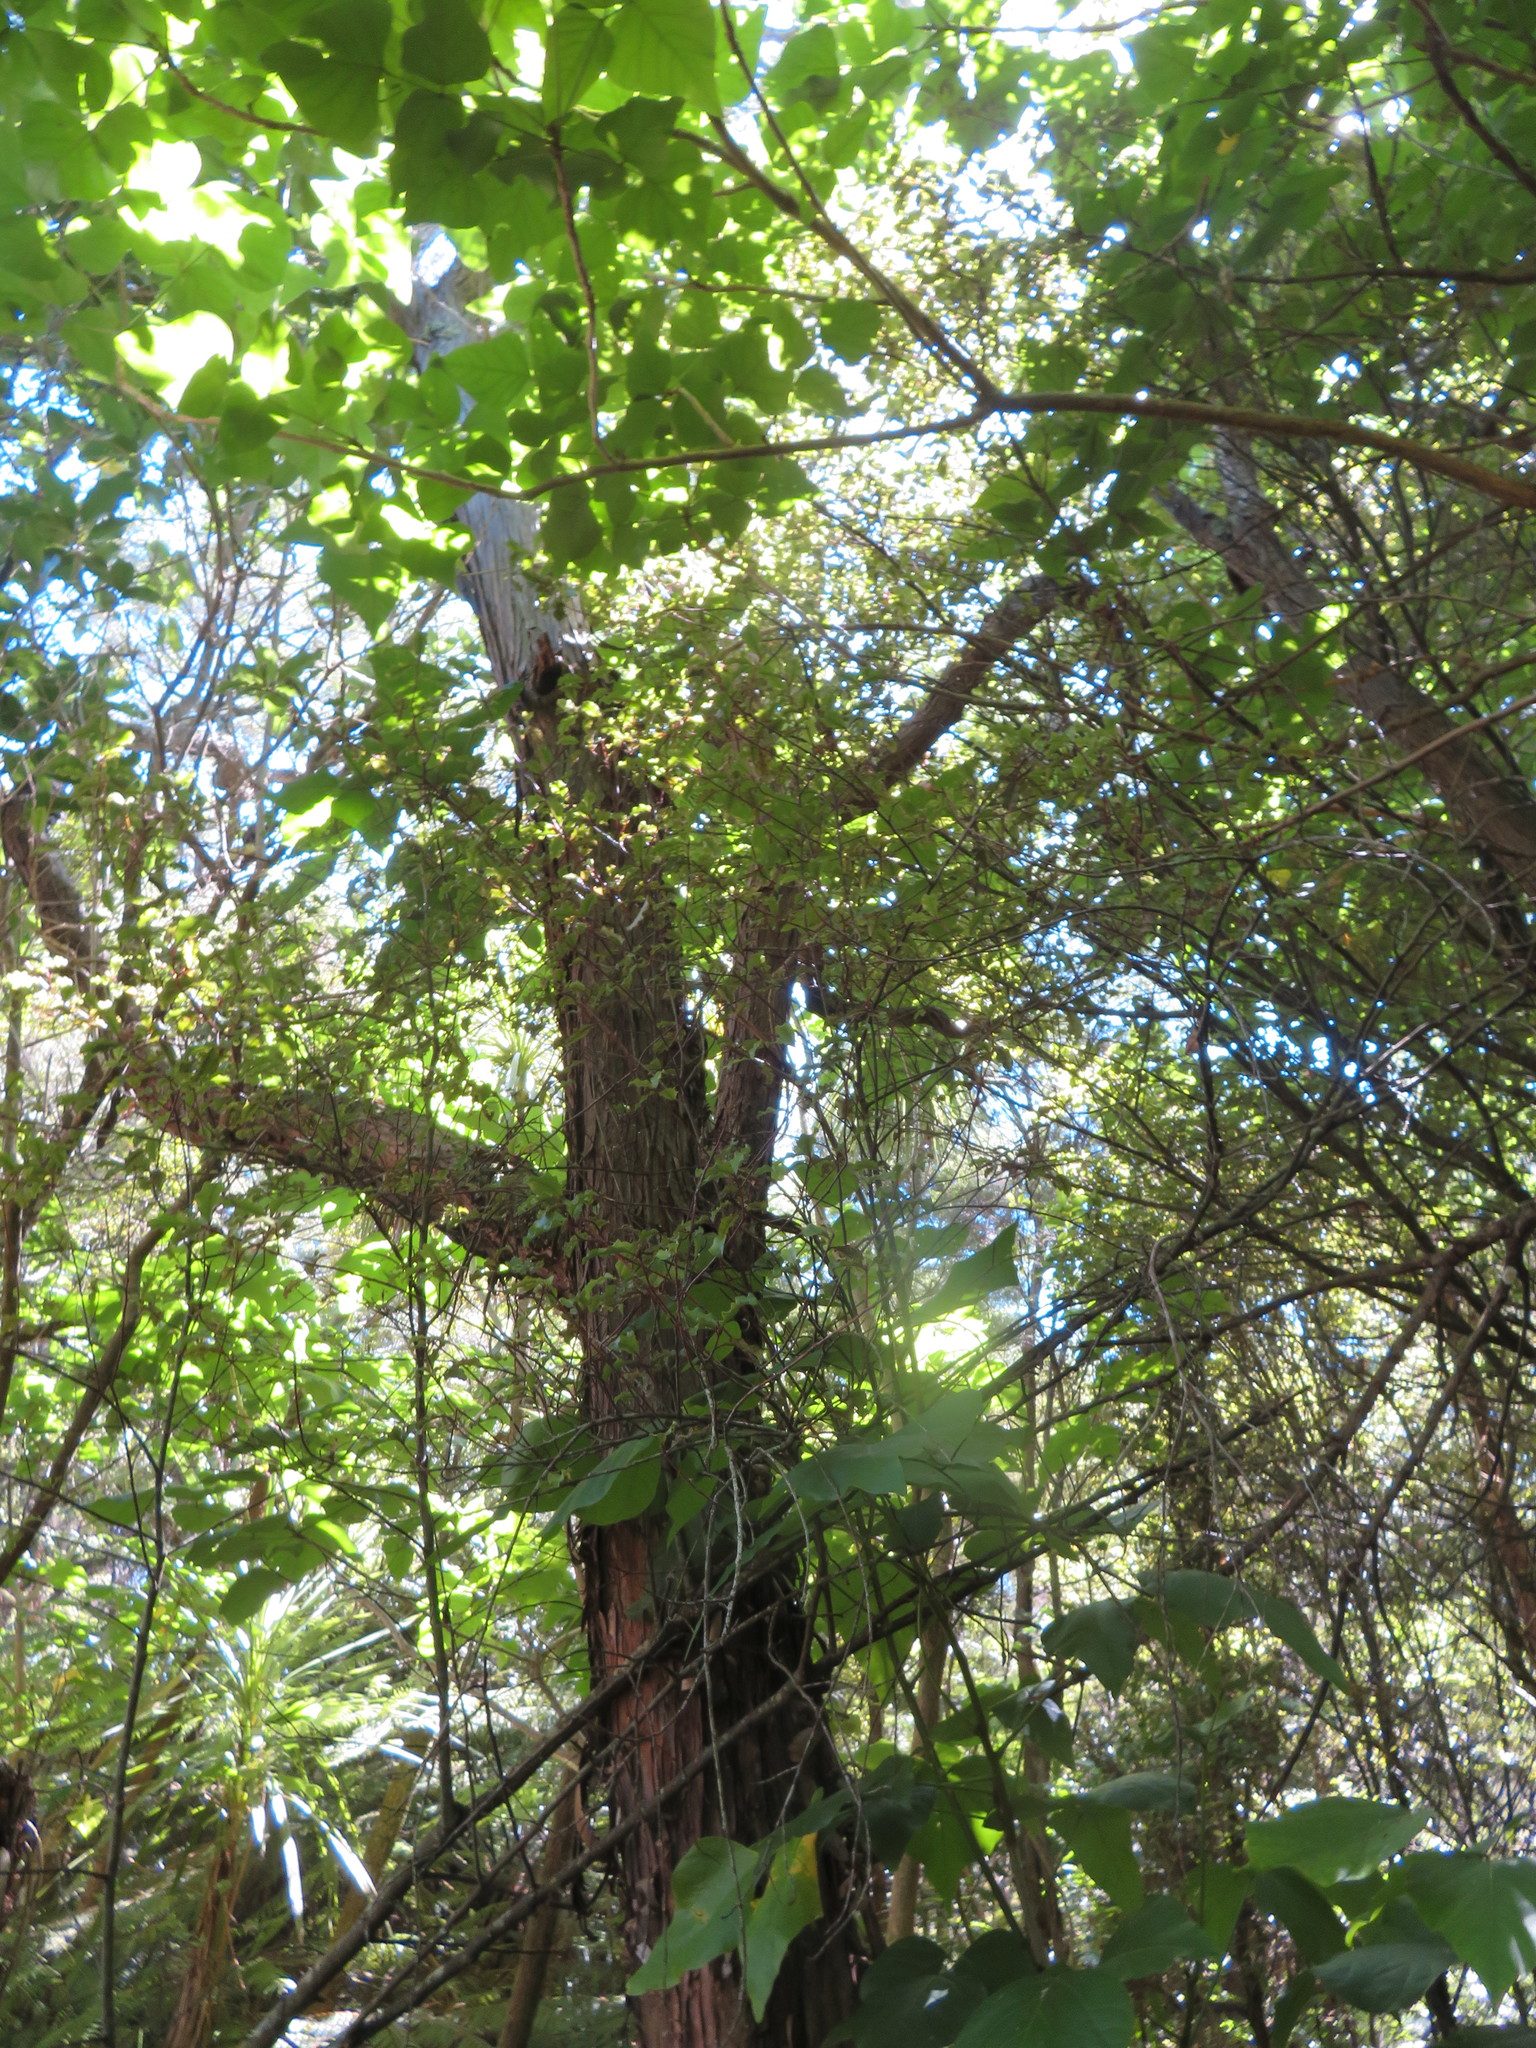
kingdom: Plantae
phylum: Tracheophyta
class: Magnoliopsida
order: Dipsacales
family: Caprifoliaceae
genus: Lonicera
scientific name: Lonicera japonica
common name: Japanese honeysuckle
